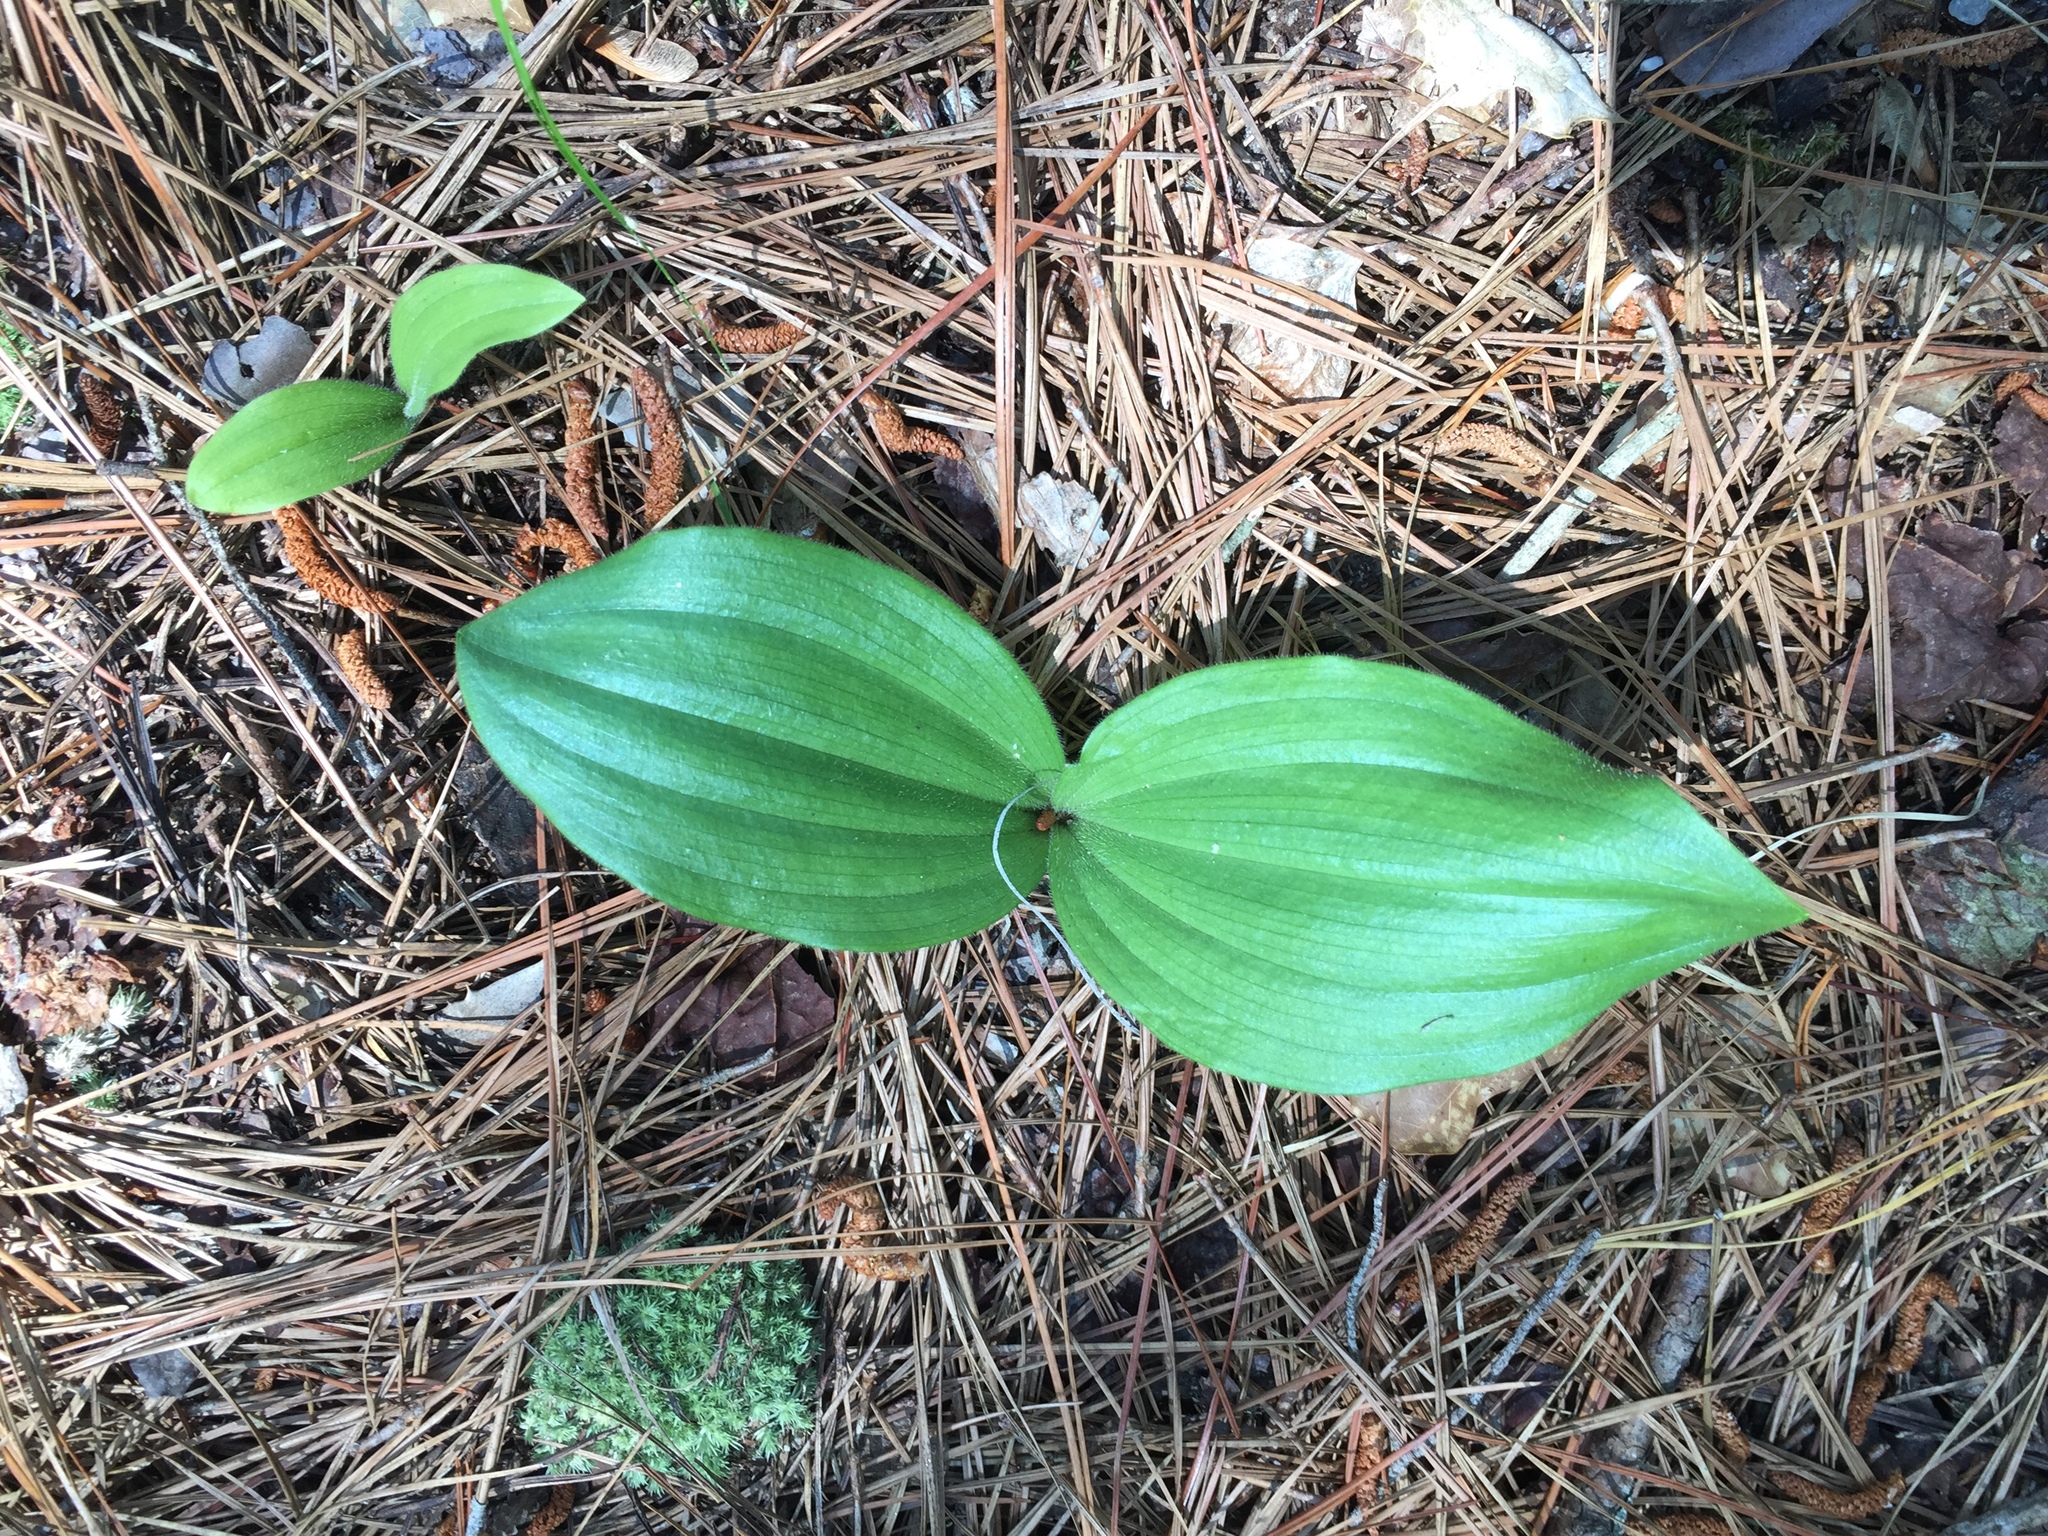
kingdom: Plantae
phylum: Tracheophyta
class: Liliopsida
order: Asparagales
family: Orchidaceae
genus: Cypripedium
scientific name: Cypripedium acaule
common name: Pink lady's-slipper
